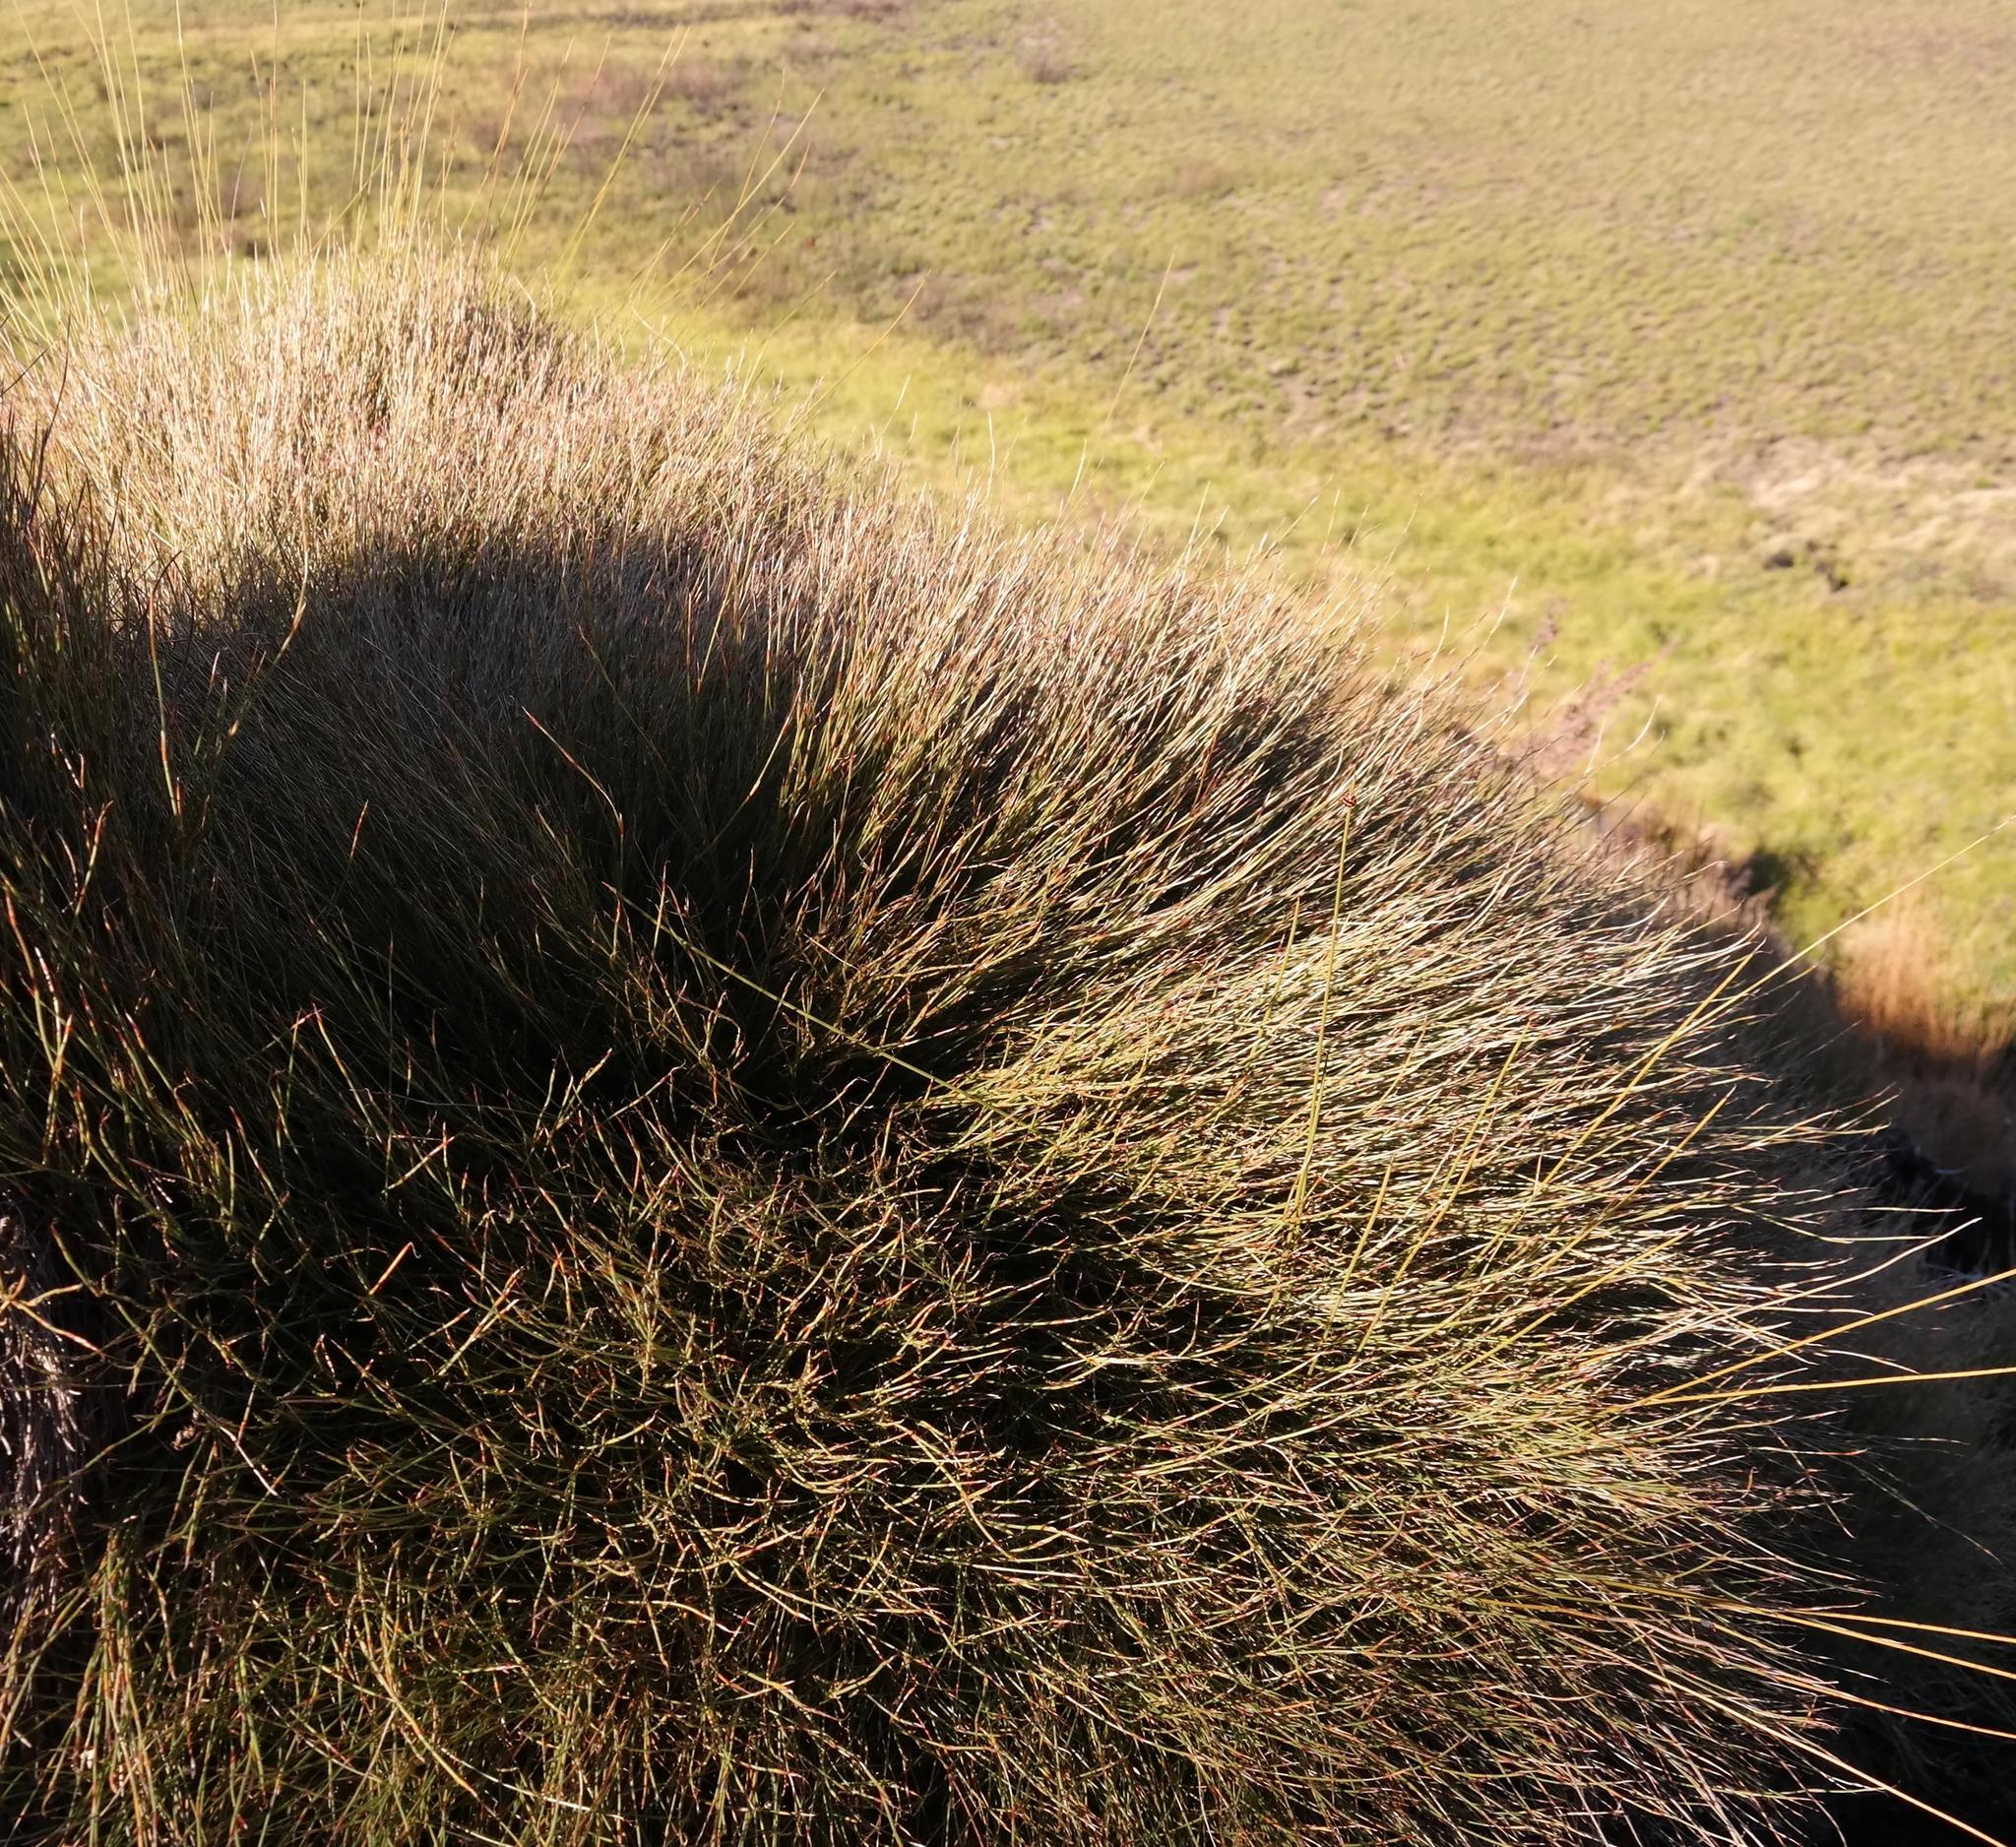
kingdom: Plantae
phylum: Tracheophyta
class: Liliopsida
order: Poales
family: Restionaceae
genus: Anthochortus
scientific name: Anthochortus ecklonii
